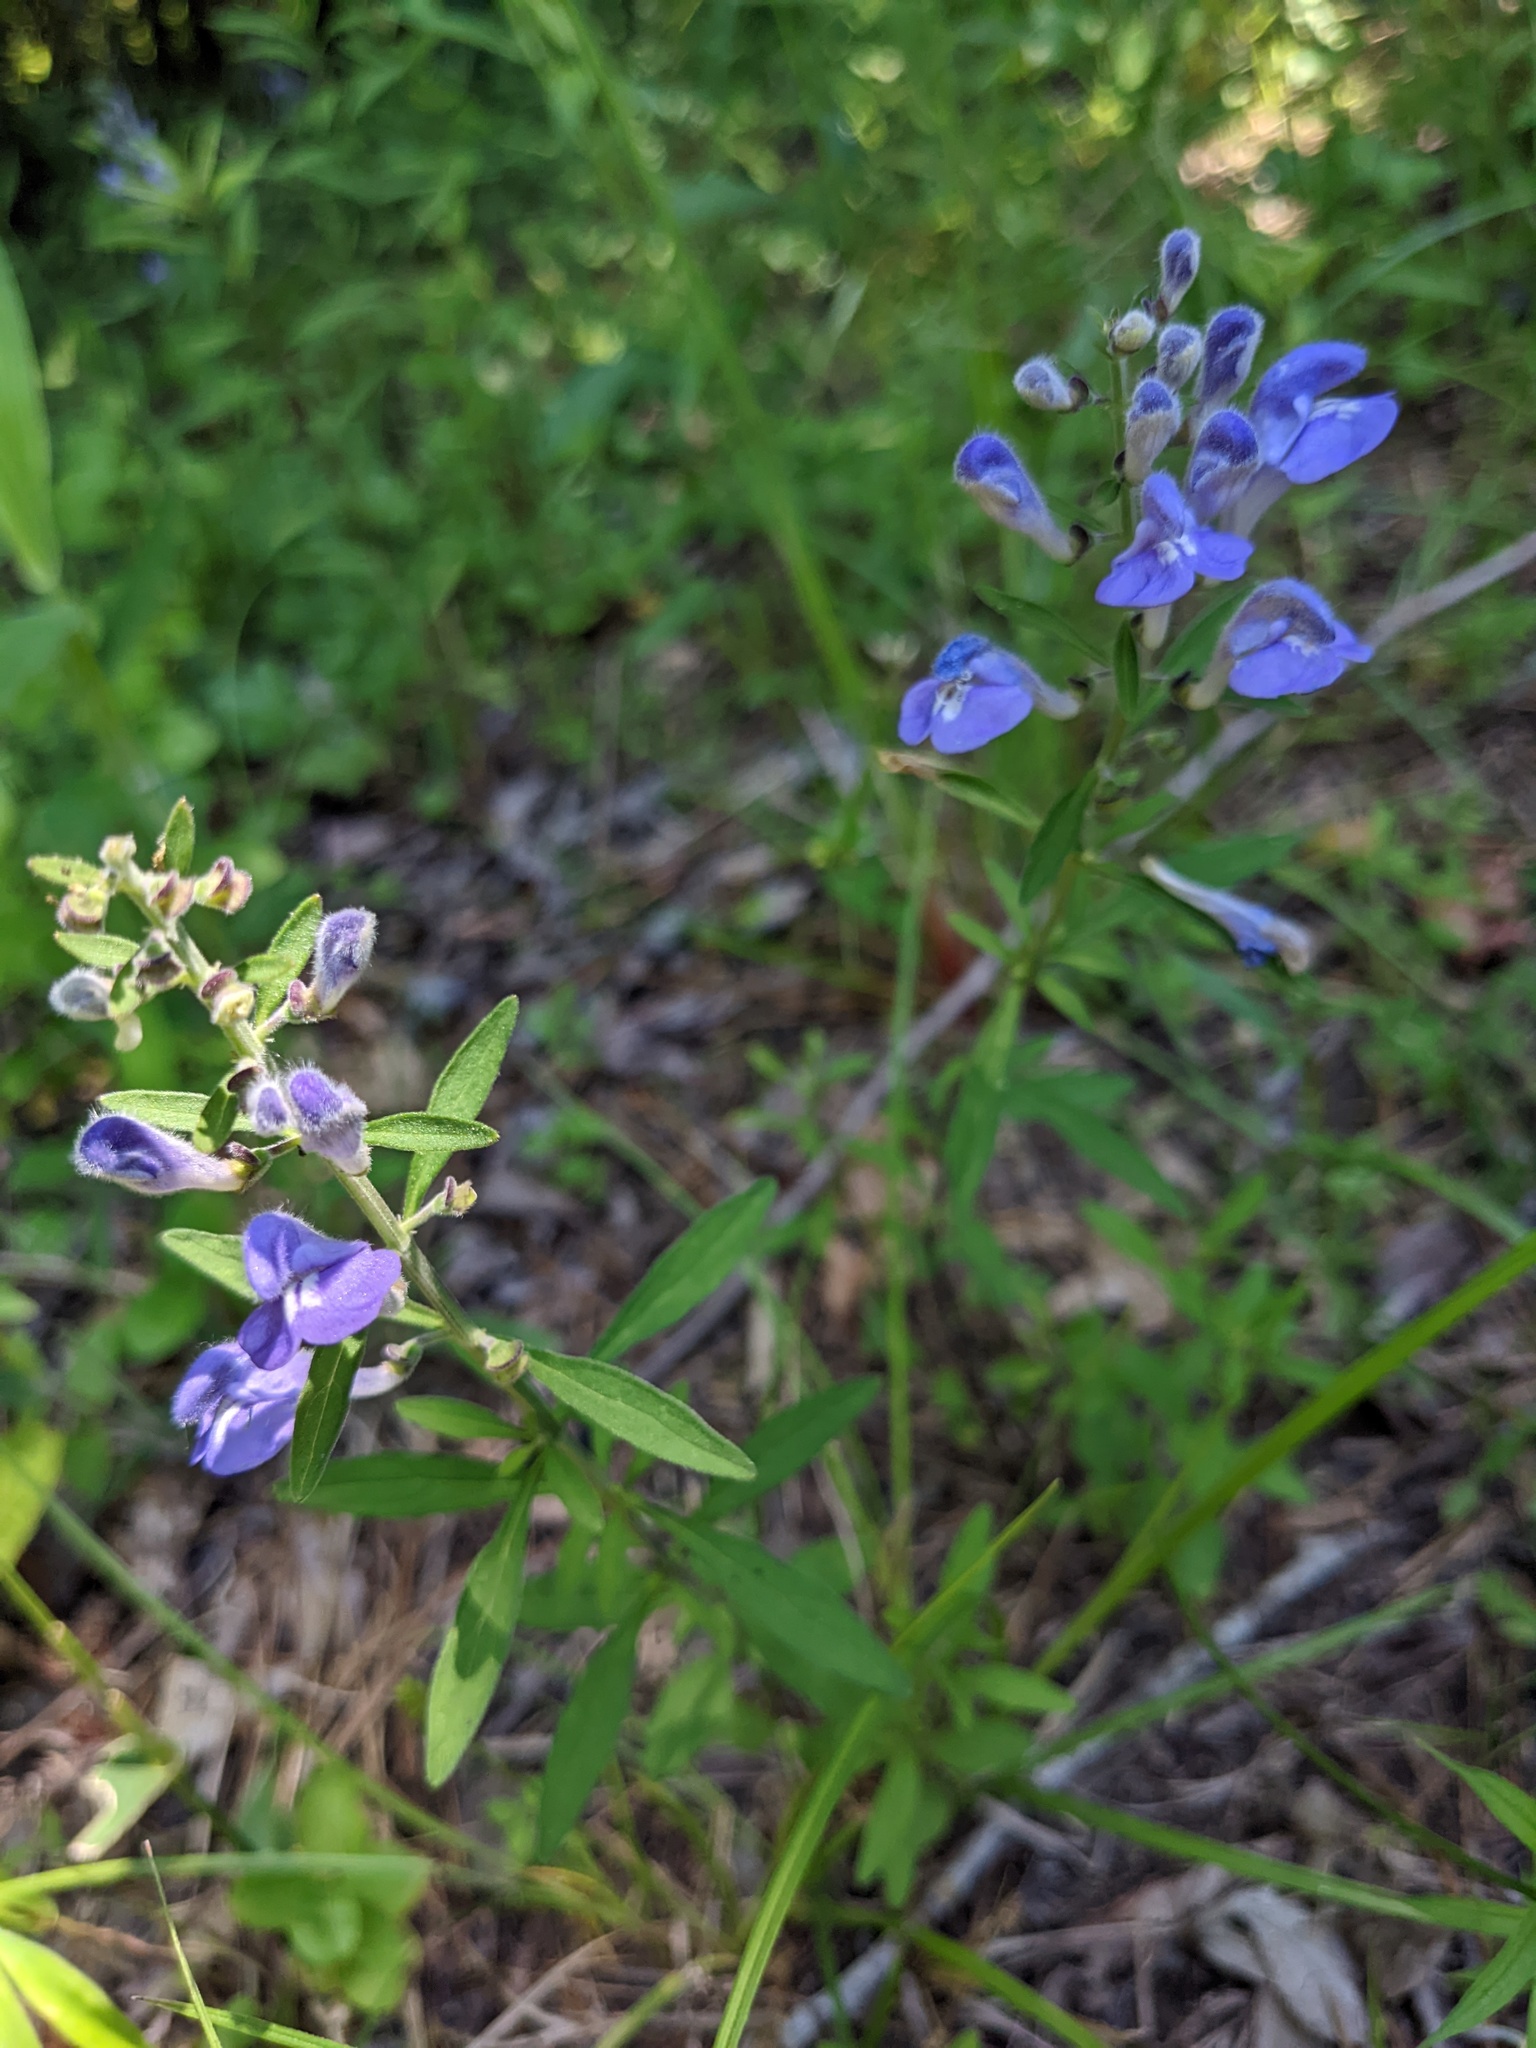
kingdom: Plantae
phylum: Tracheophyta
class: Magnoliopsida
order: Lamiales
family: Lamiaceae
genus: Scutellaria
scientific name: Scutellaria integrifolia
